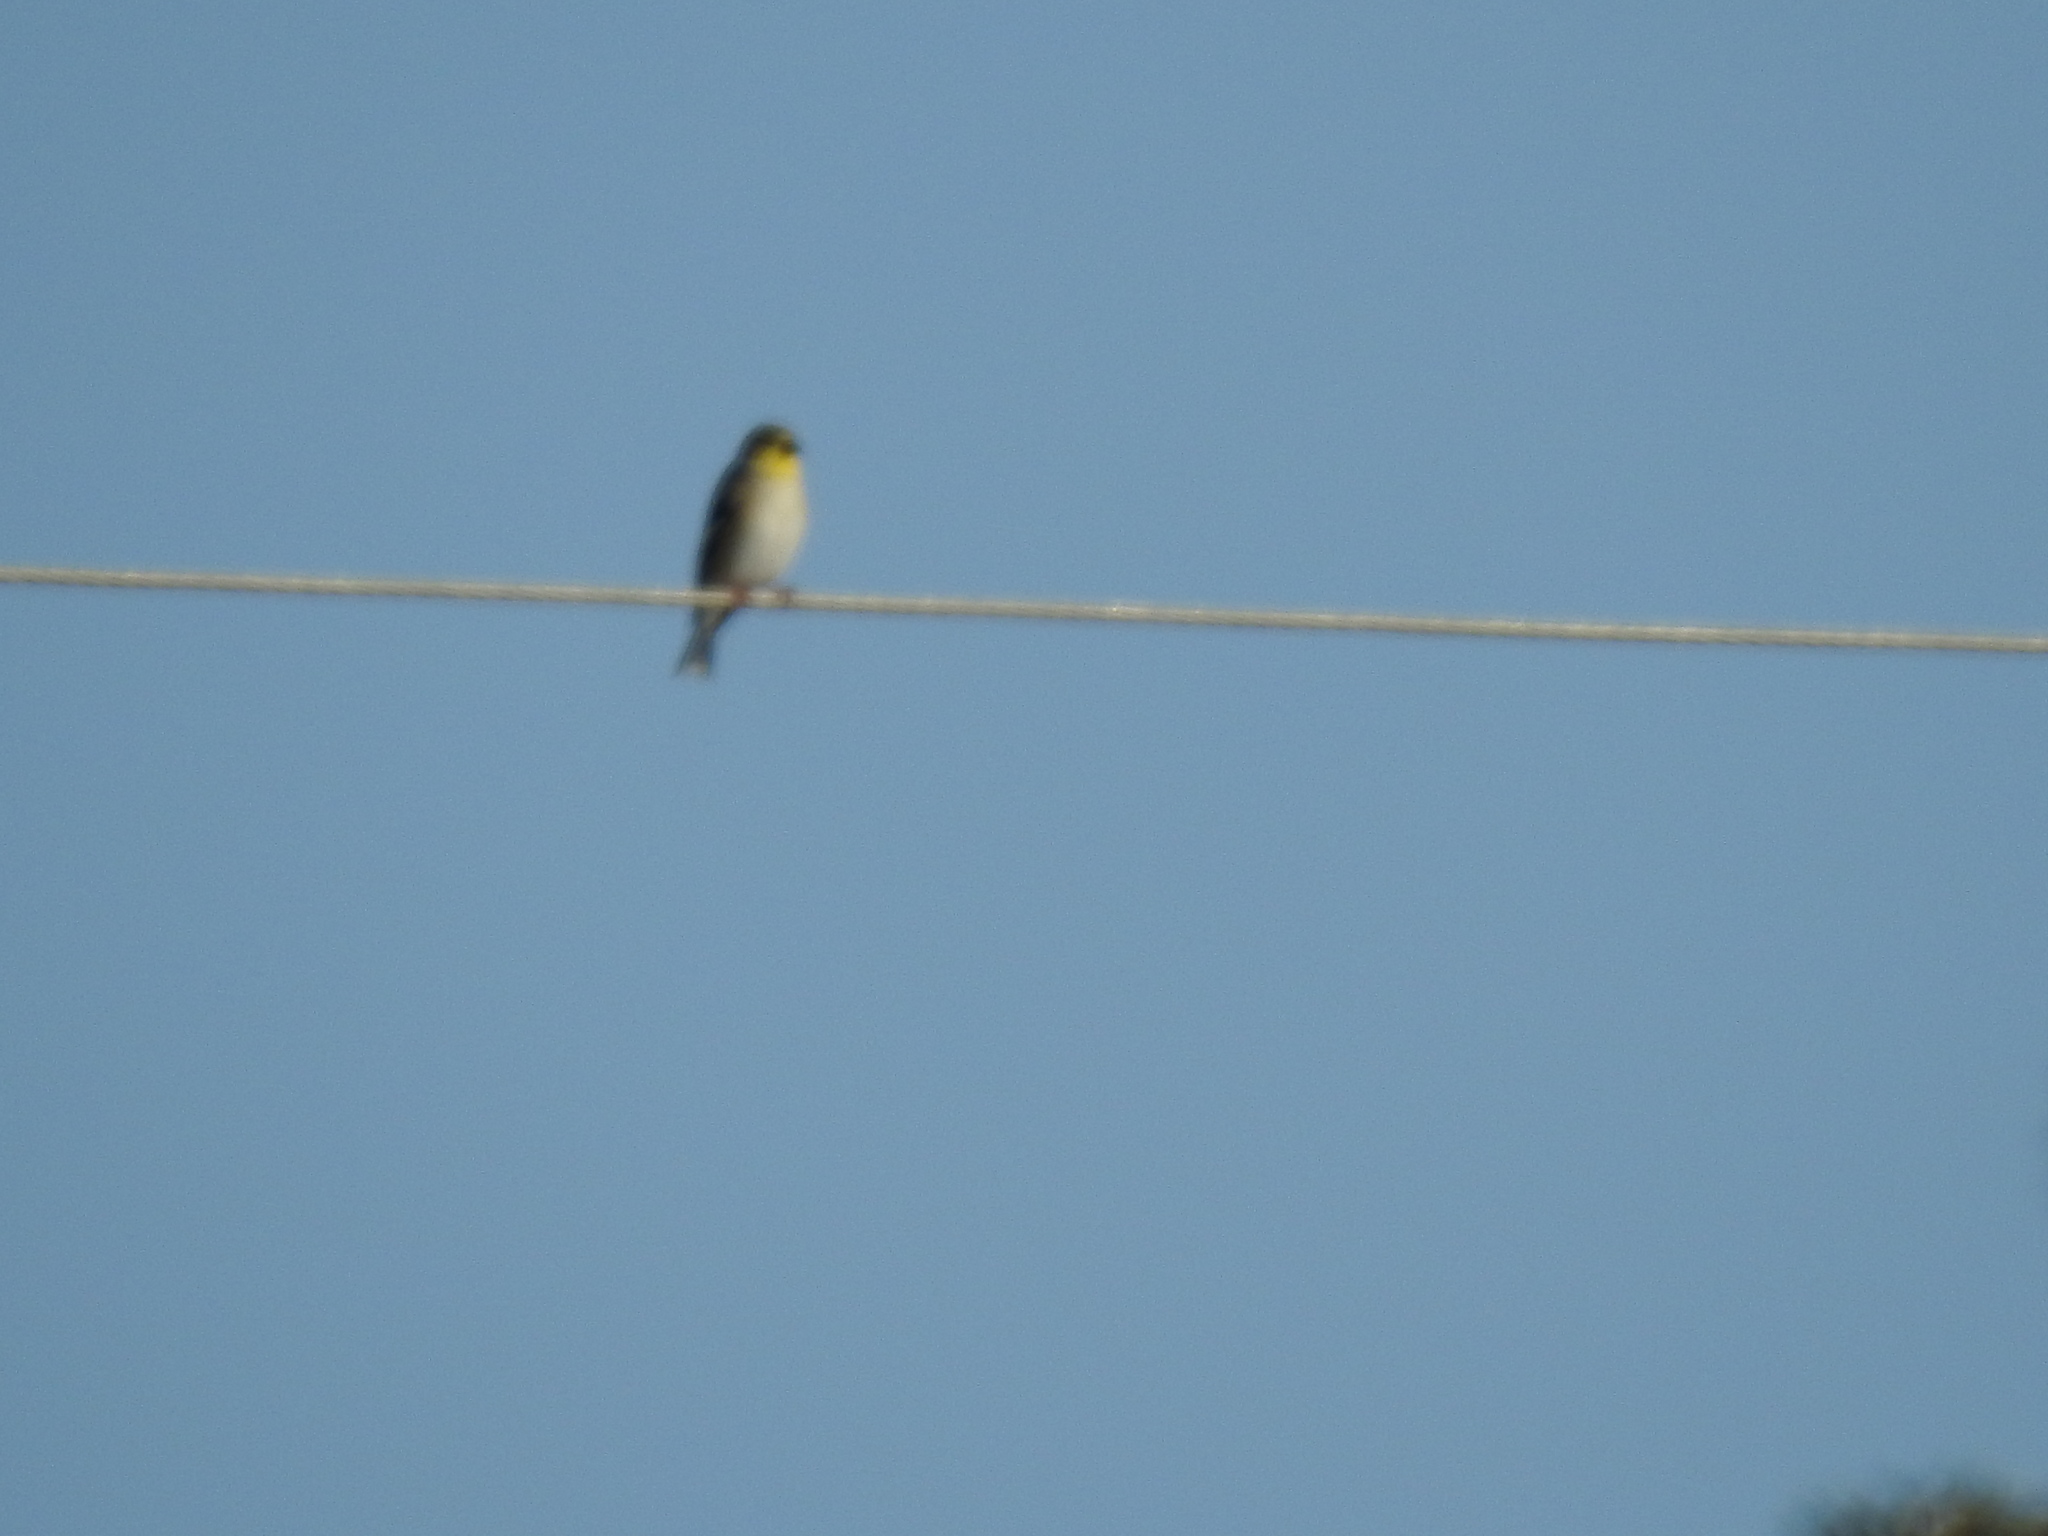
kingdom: Animalia
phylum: Chordata
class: Aves
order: Passeriformes
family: Fringillidae
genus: Spinus
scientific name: Spinus tristis
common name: American goldfinch
